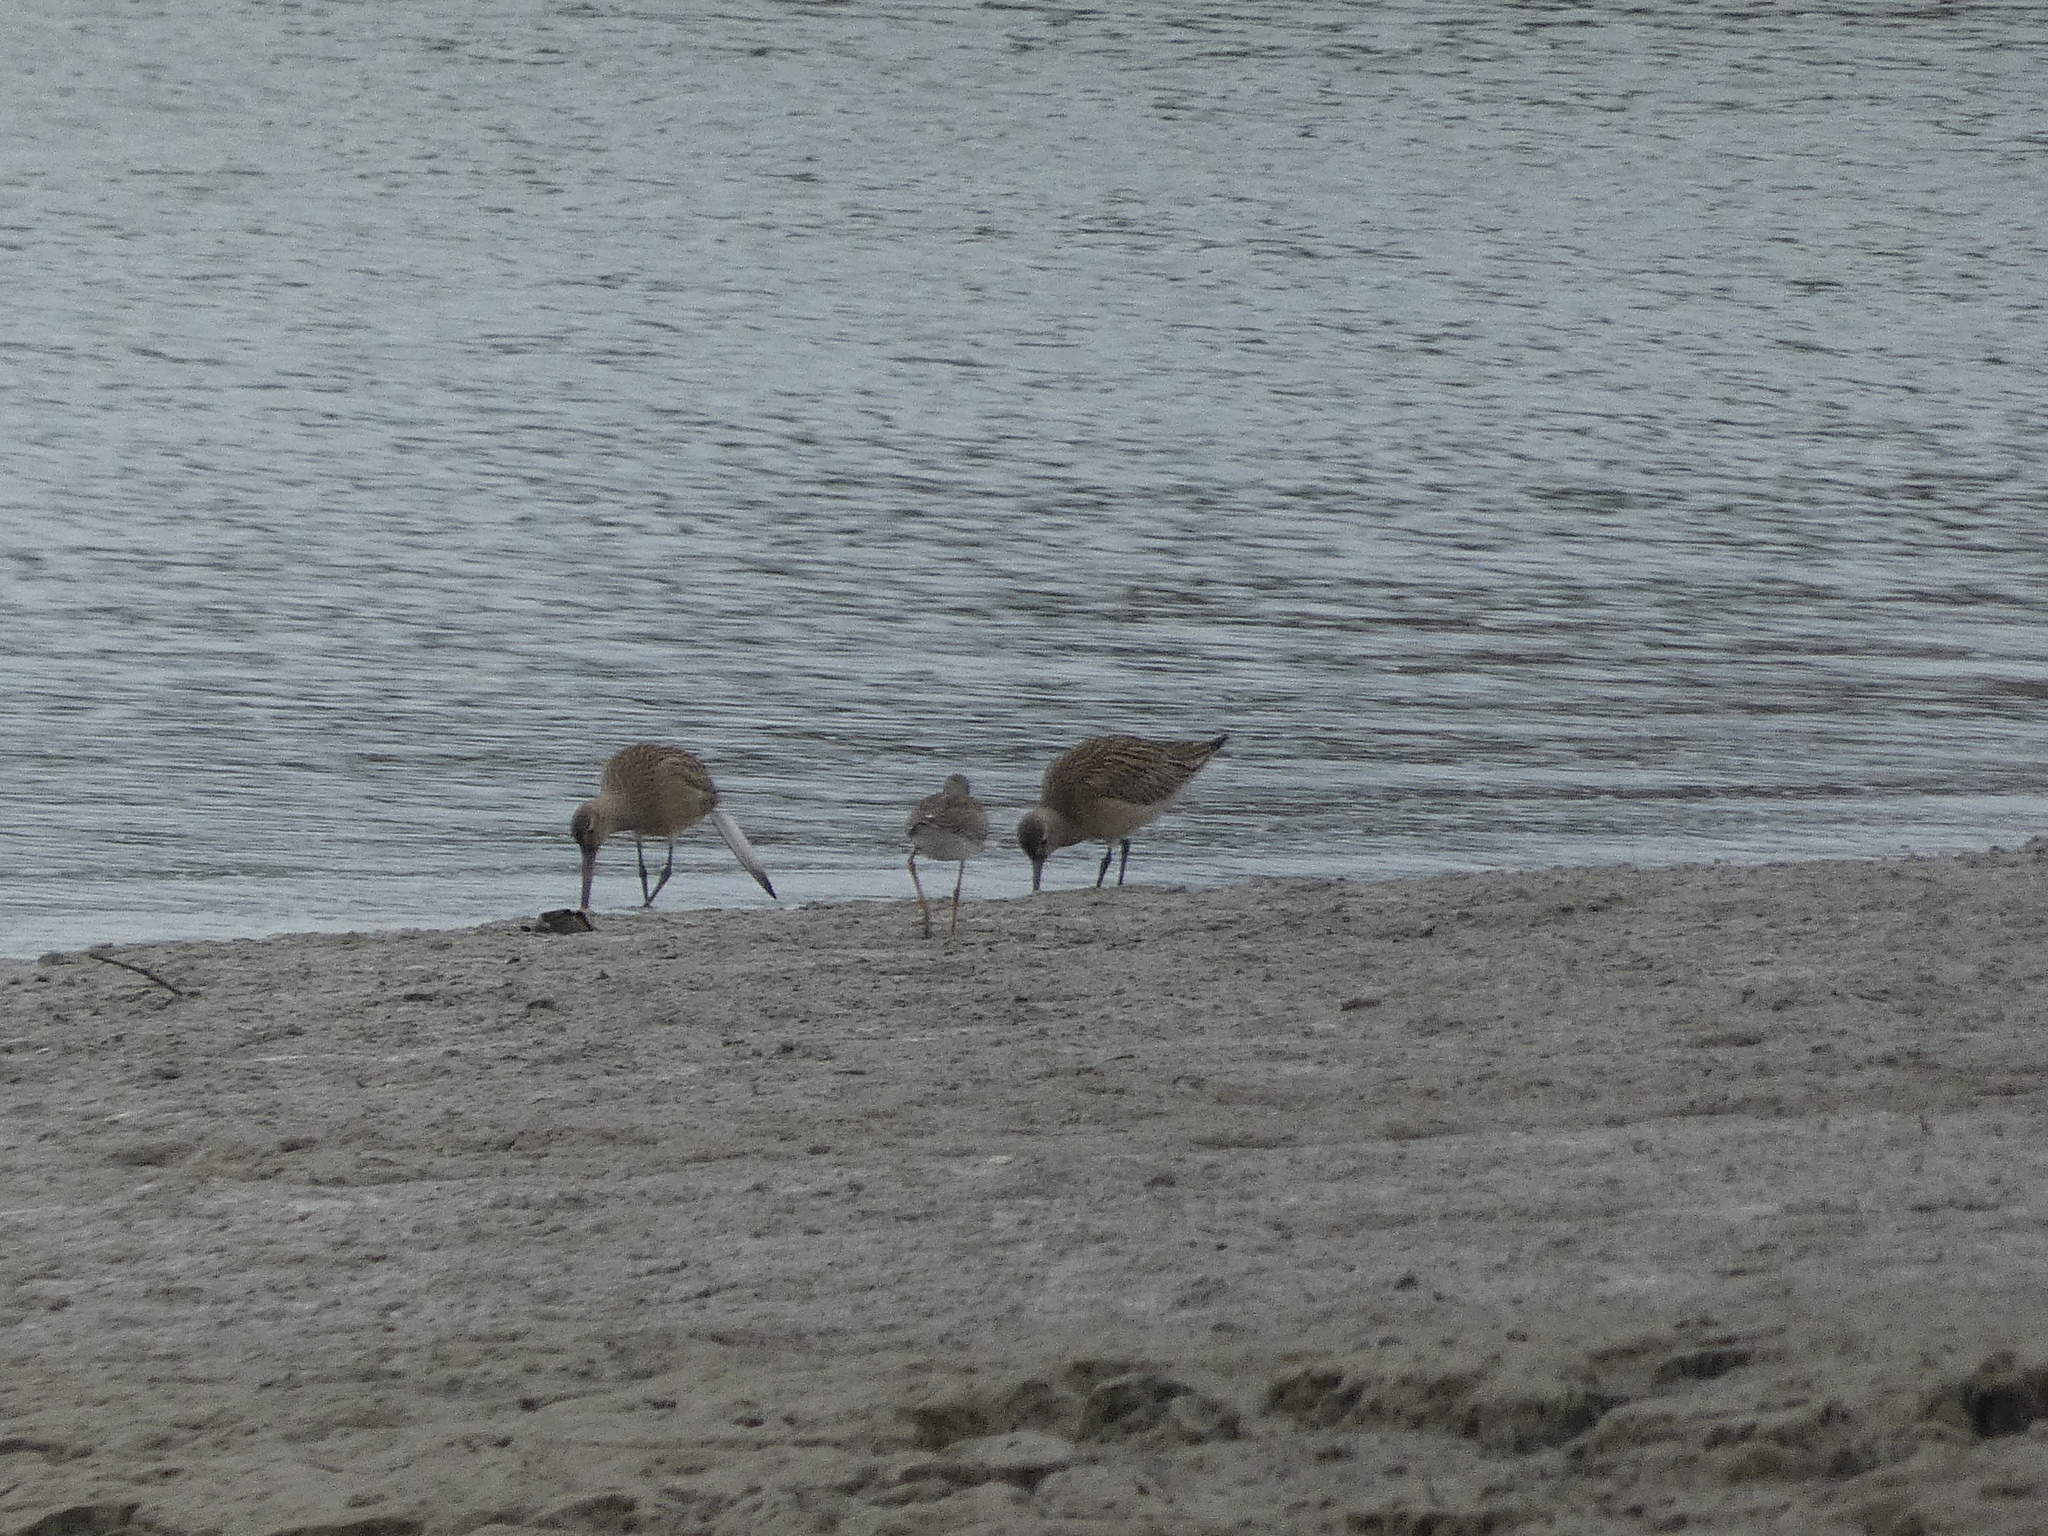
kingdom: Animalia
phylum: Chordata
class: Aves
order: Charadriiformes
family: Scolopacidae
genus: Limosa
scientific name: Limosa lapponica
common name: Bar-tailed godwit
